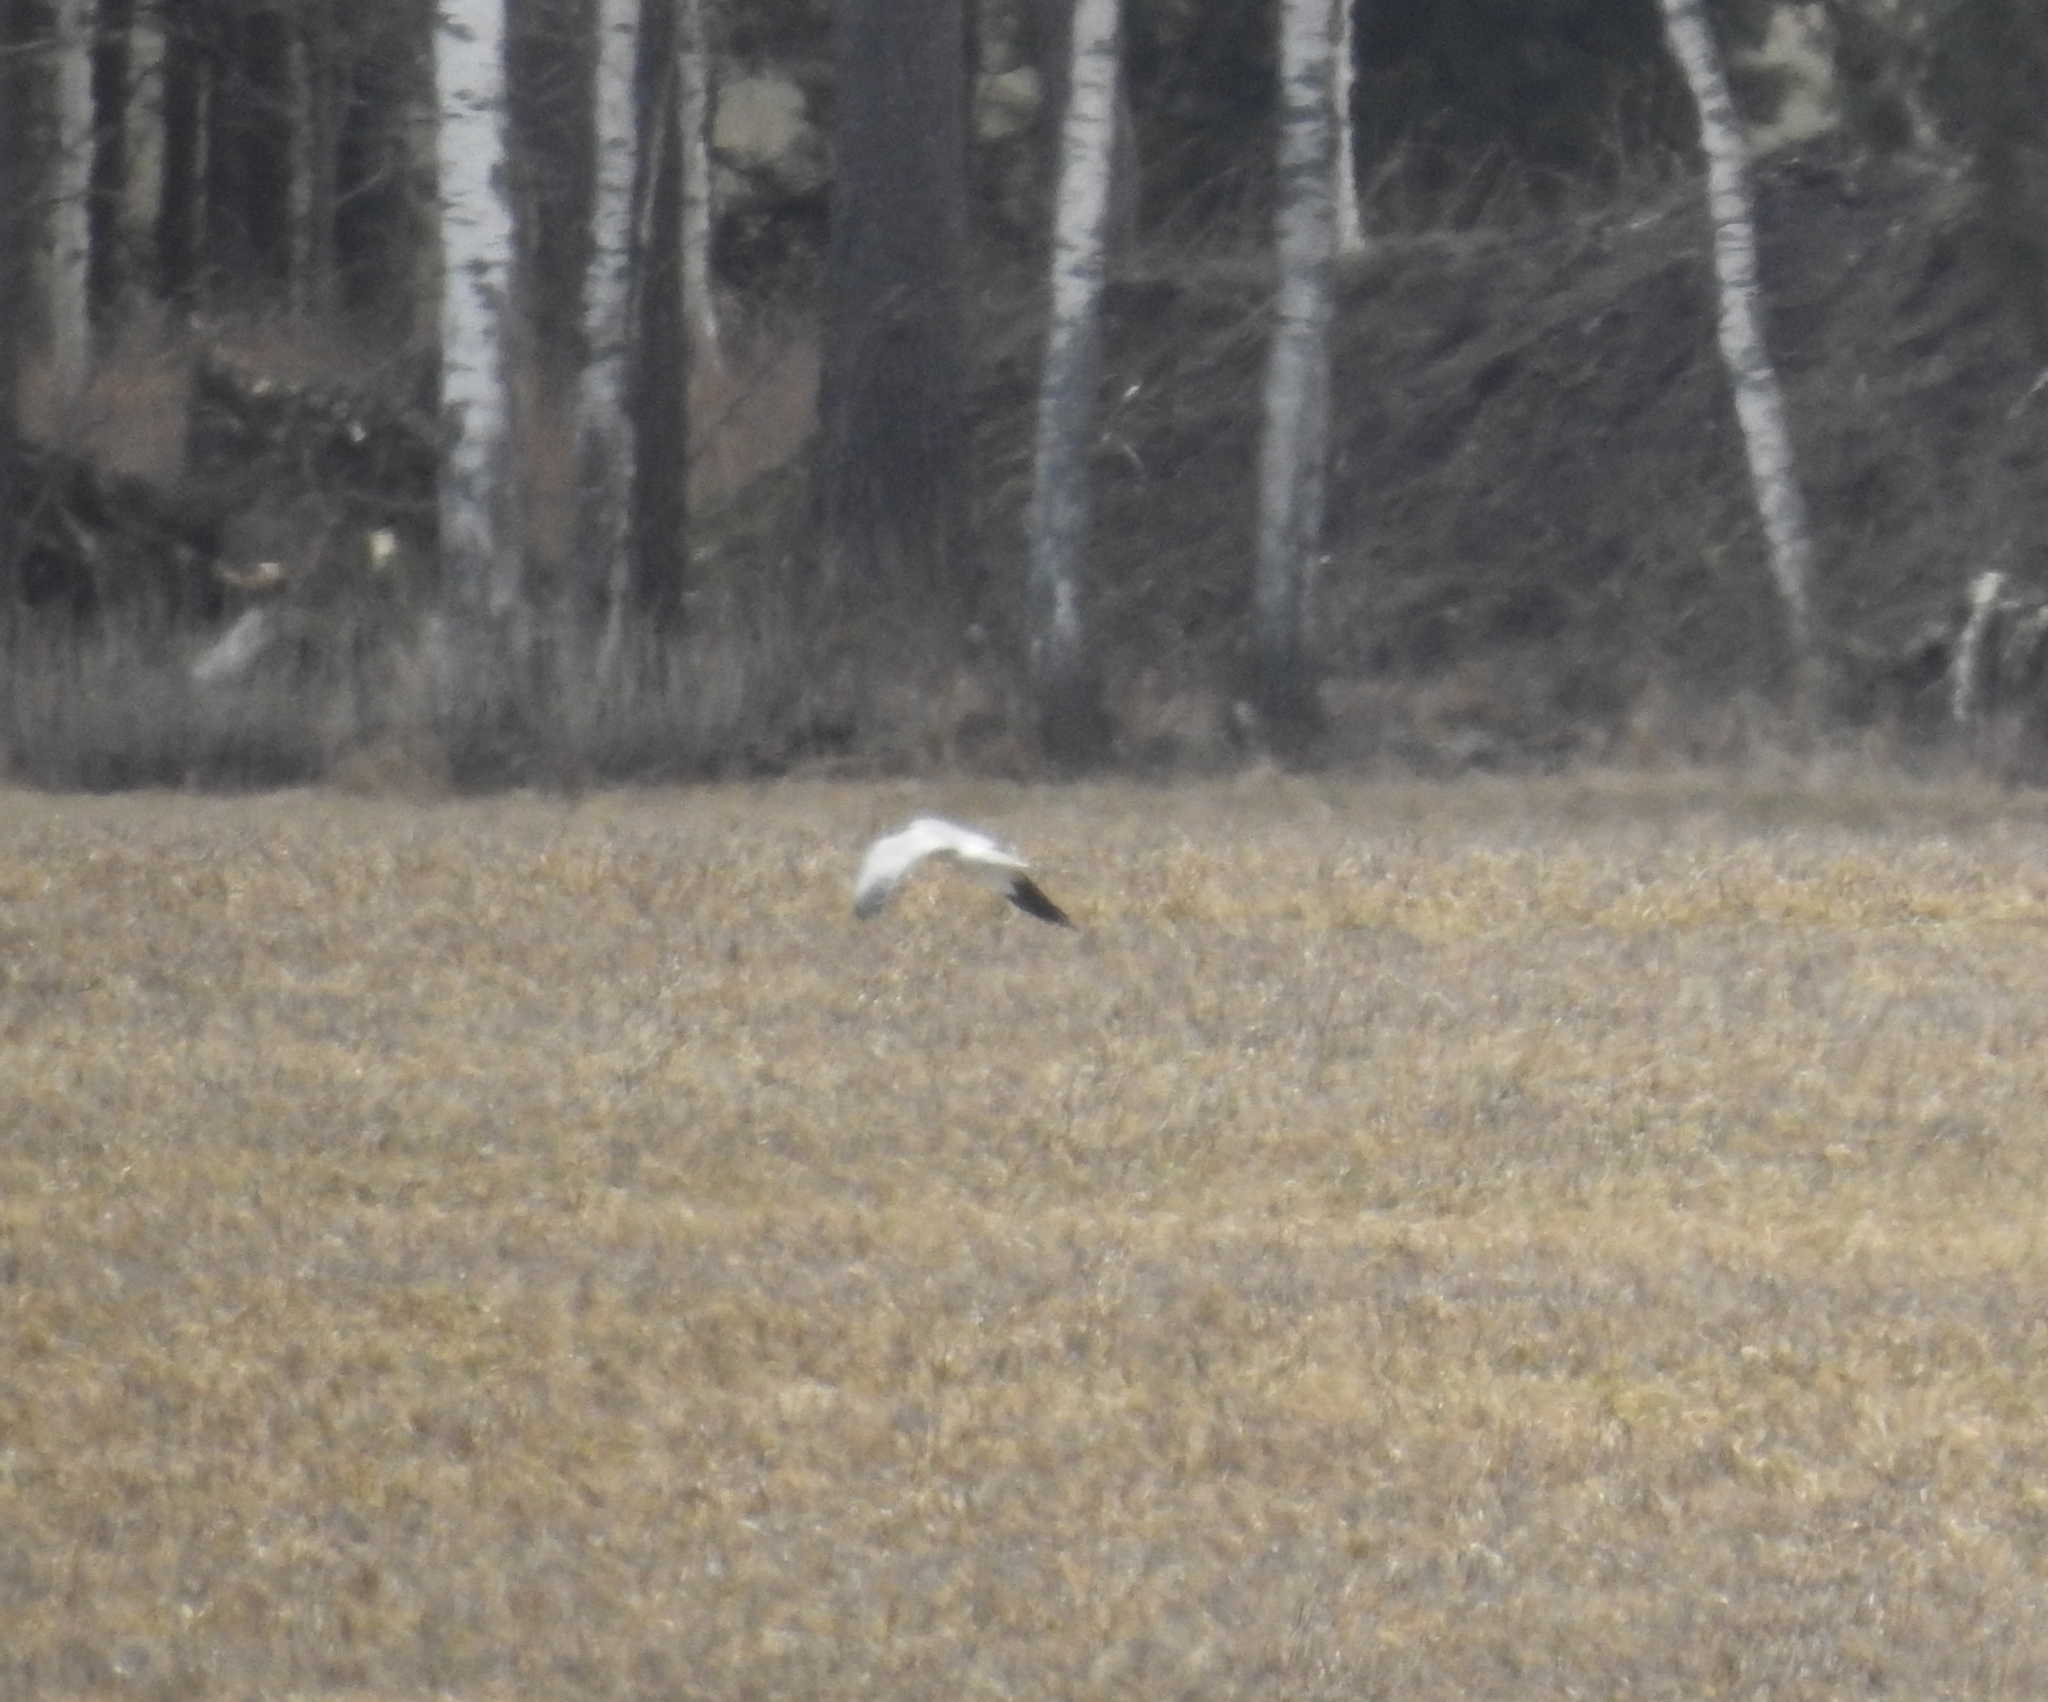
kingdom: Animalia
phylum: Chordata
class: Aves
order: Accipitriformes
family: Accipitridae
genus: Circus
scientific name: Circus cyaneus
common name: Hen harrier
